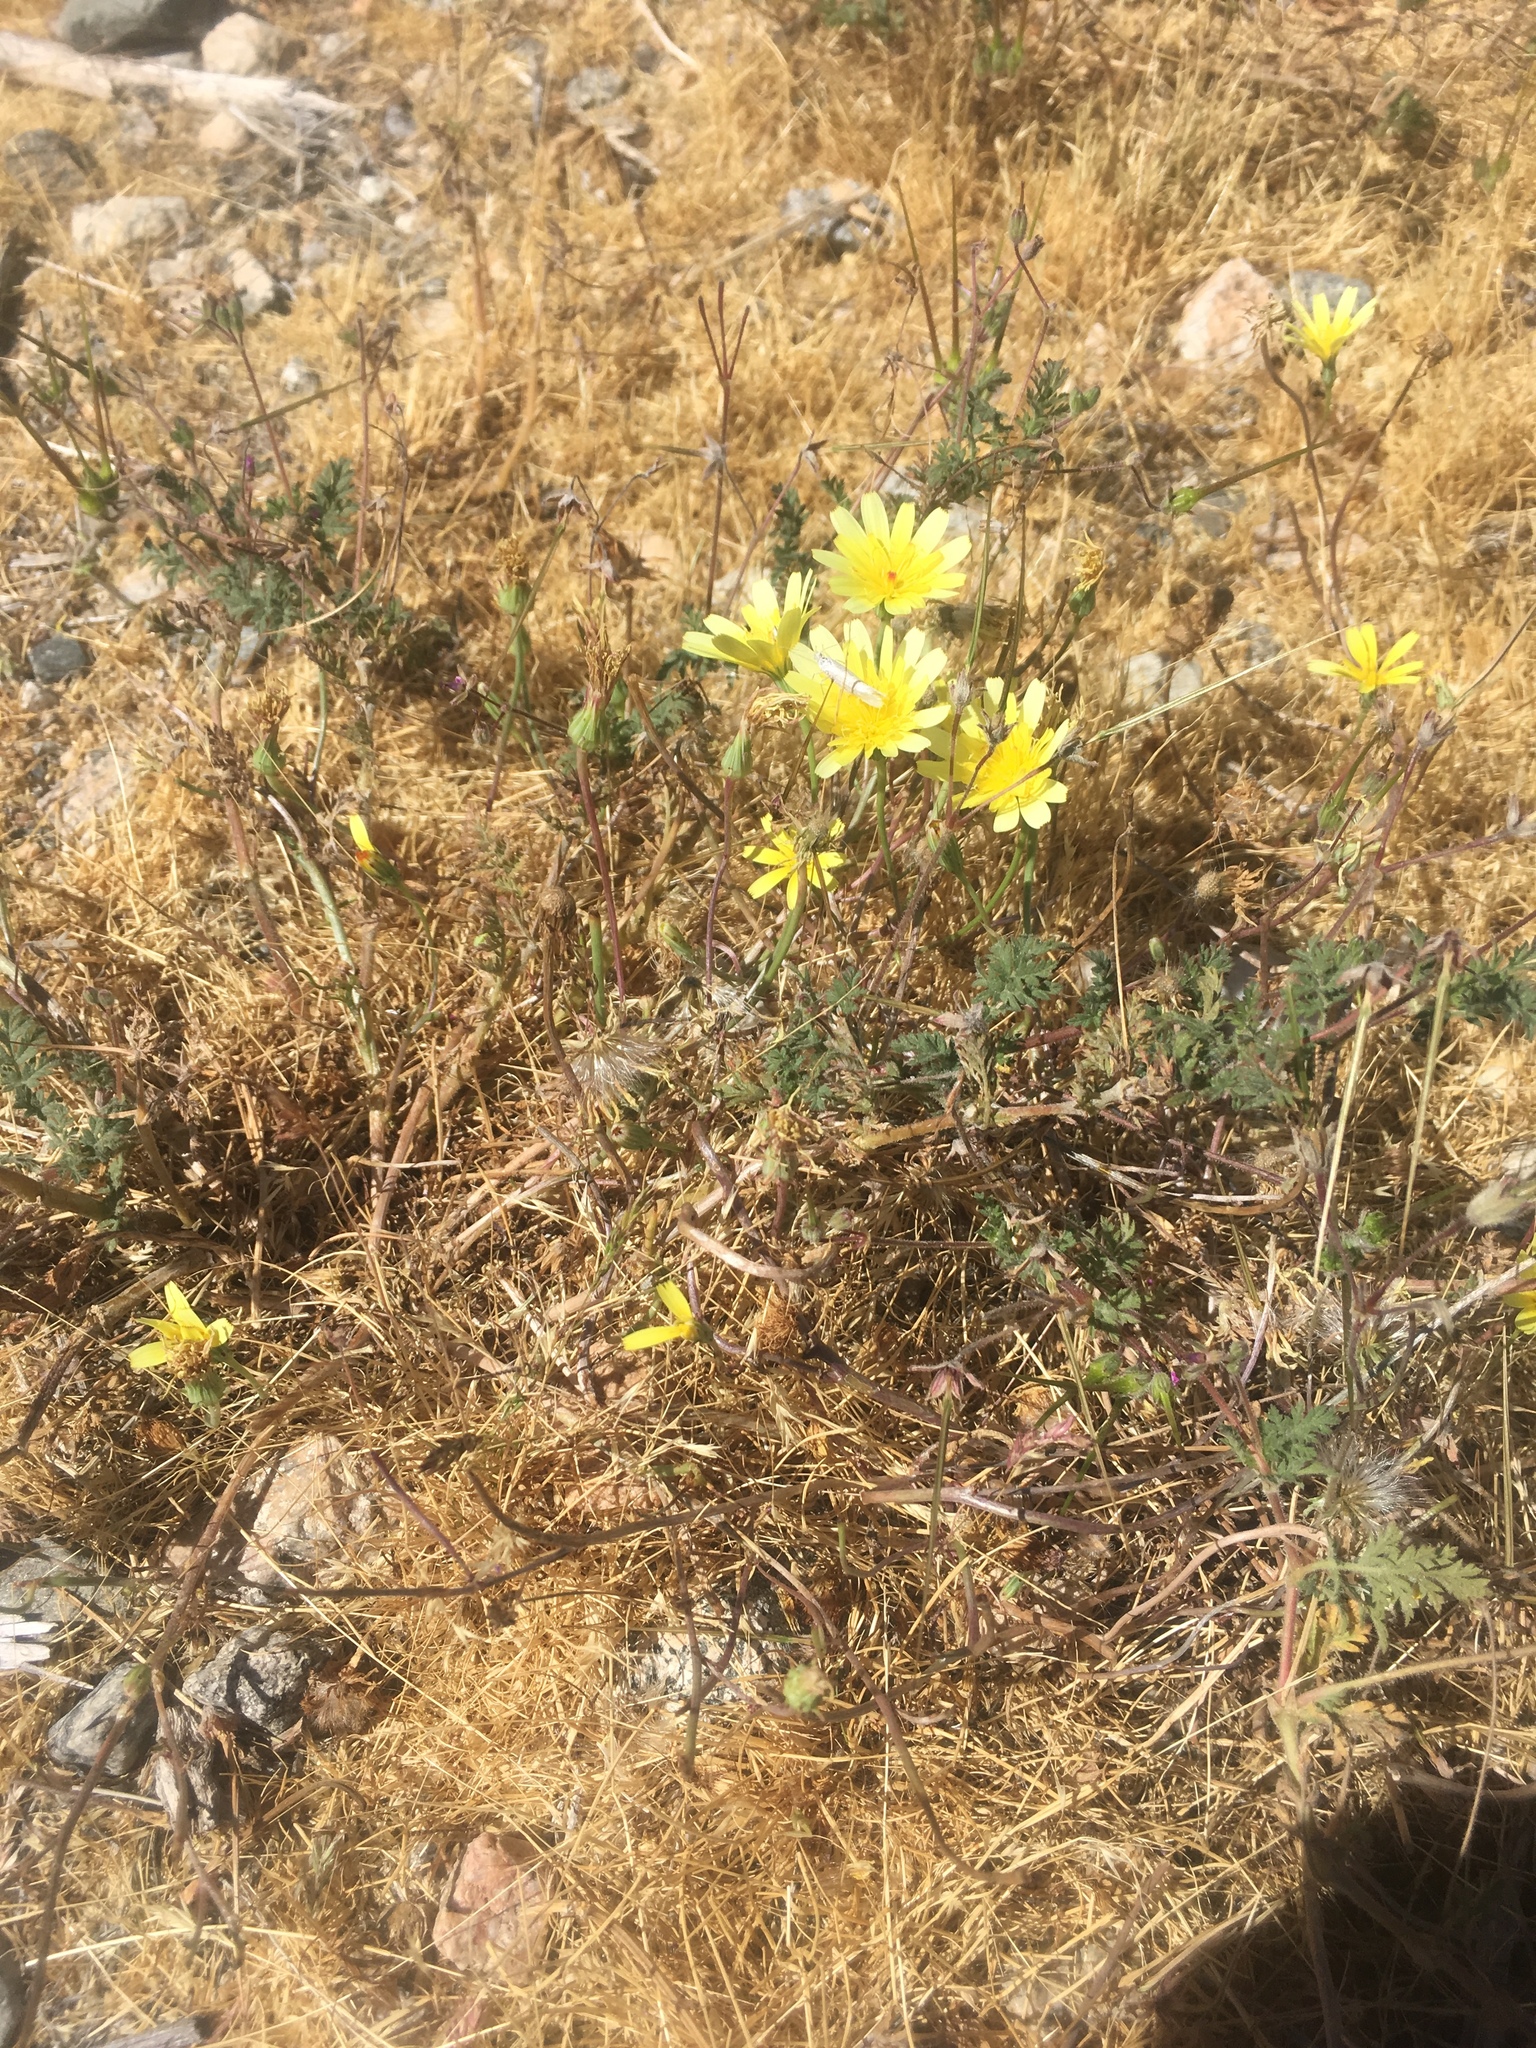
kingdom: Plantae
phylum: Tracheophyta
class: Magnoliopsida
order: Asterales
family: Asteraceae
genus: Malacothrix
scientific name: Malacothrix glabrata
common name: Smooth desert-dandelion
